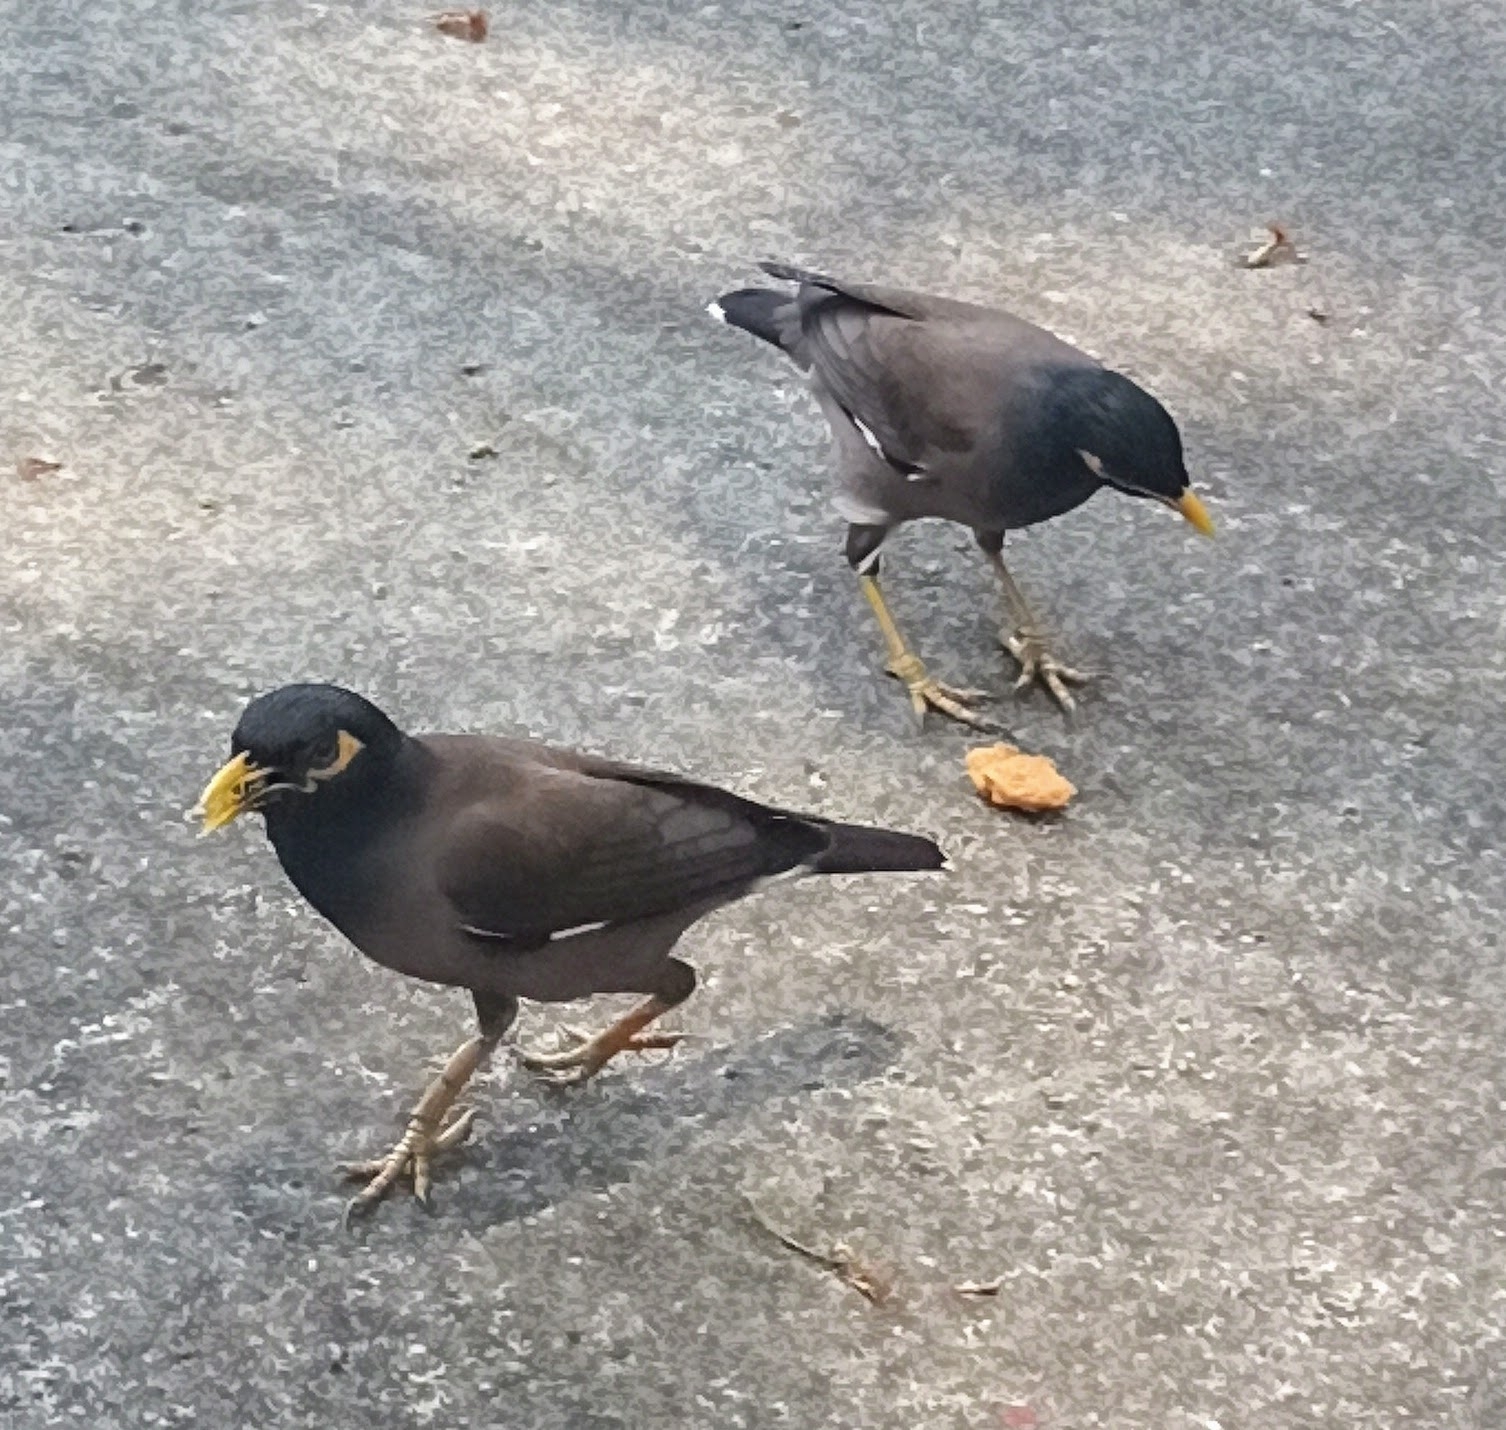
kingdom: Animalia
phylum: Chordata
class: Aves
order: Passeriformes
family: Sturnidae
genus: Acridotheres
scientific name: Acridotheres tristis
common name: Common myna
